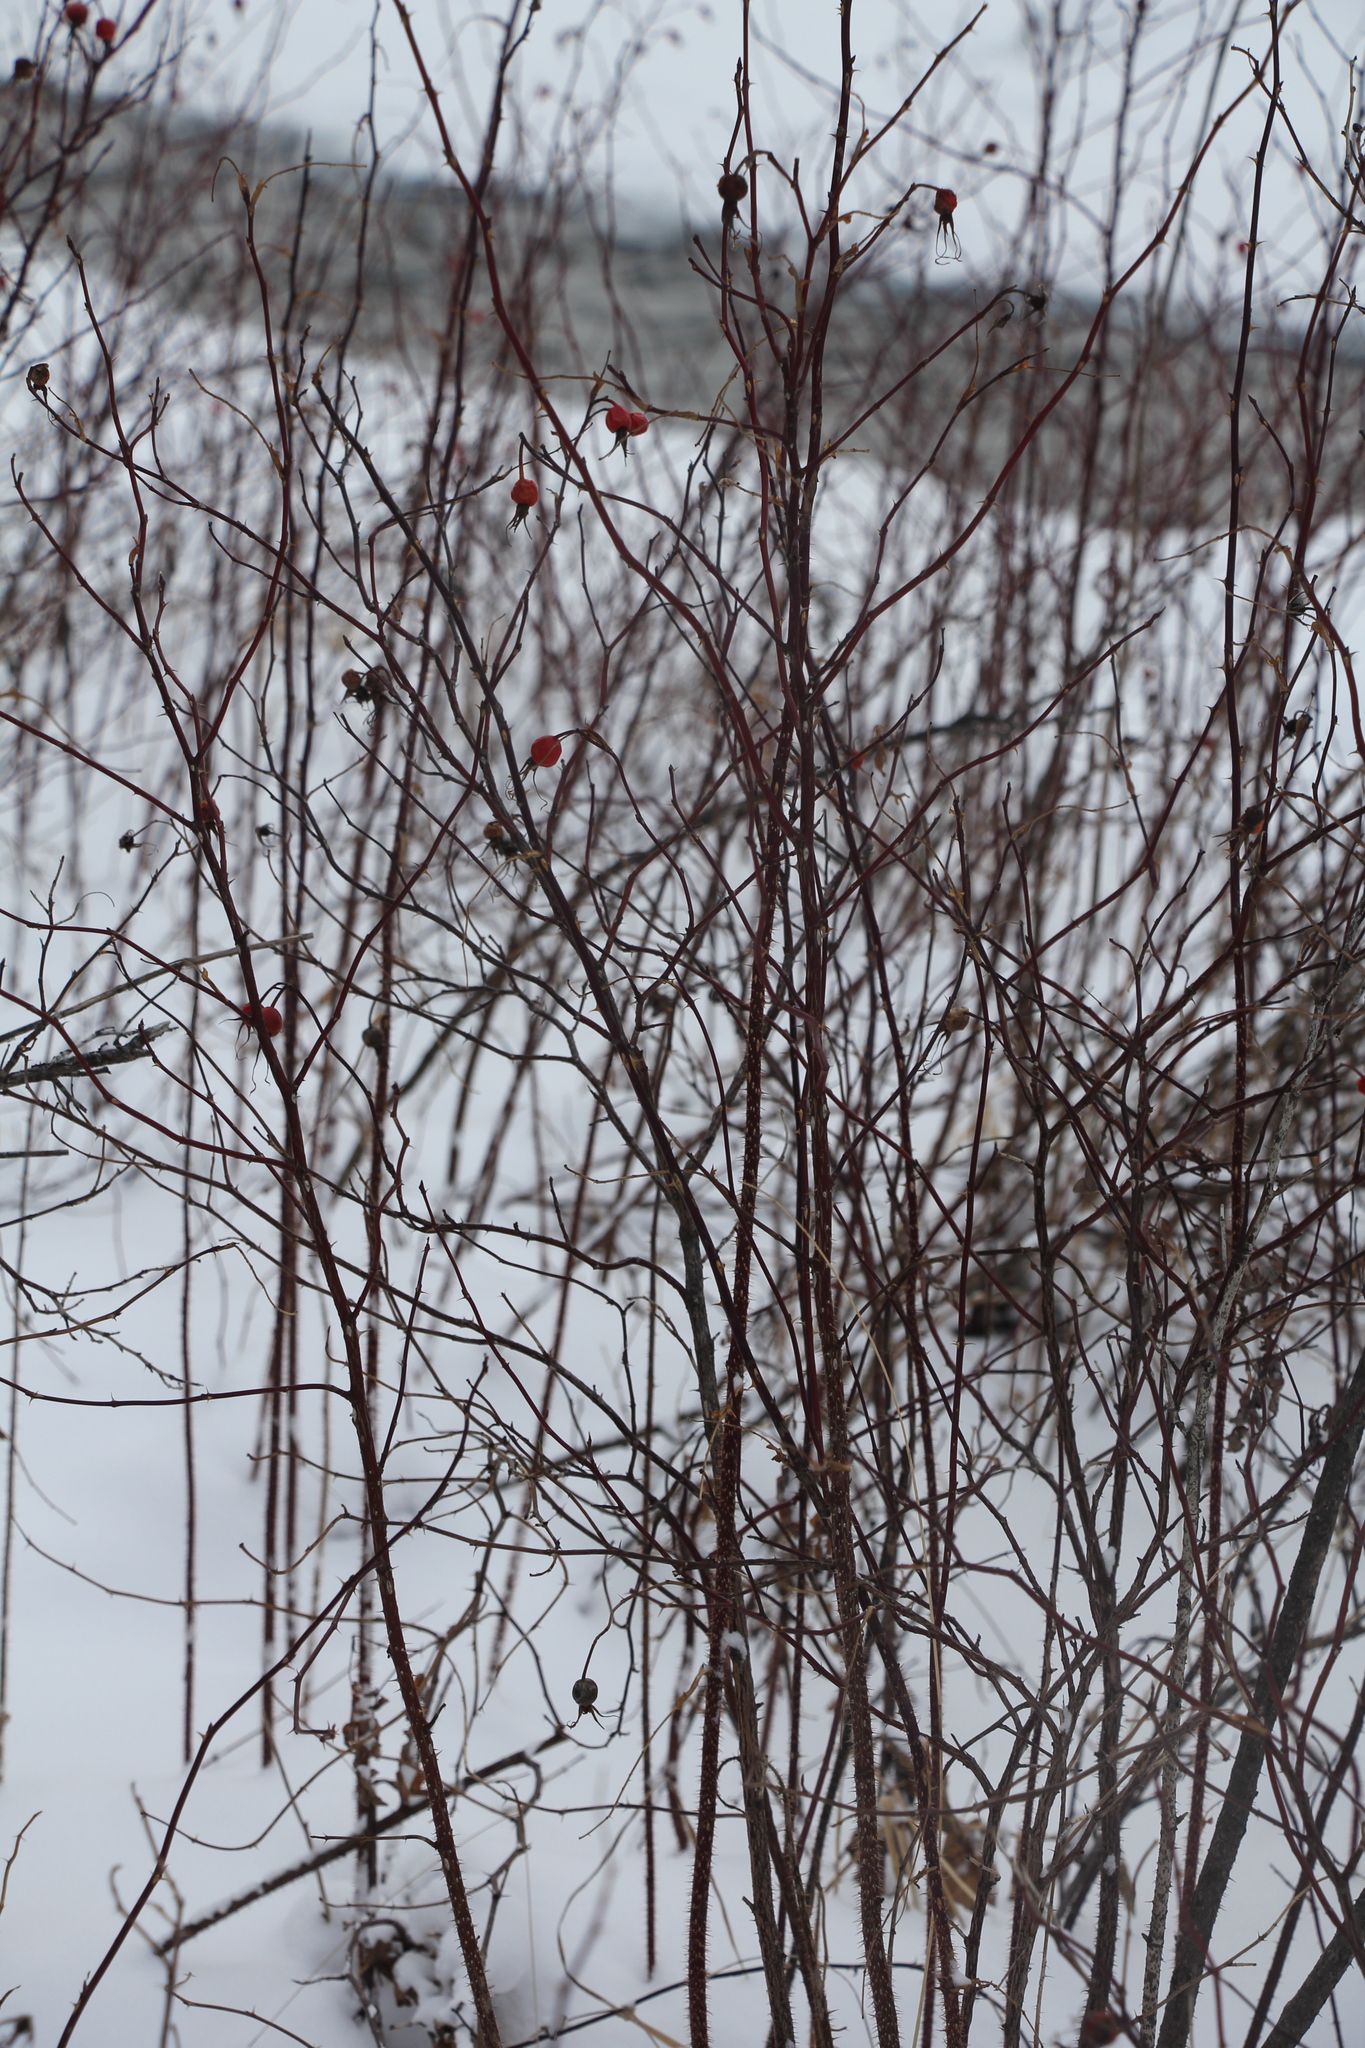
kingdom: Plantae
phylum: Tracheophyta
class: Magnoliopsida
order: Rosales
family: Rosaceae
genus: Rosa
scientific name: Rosa
